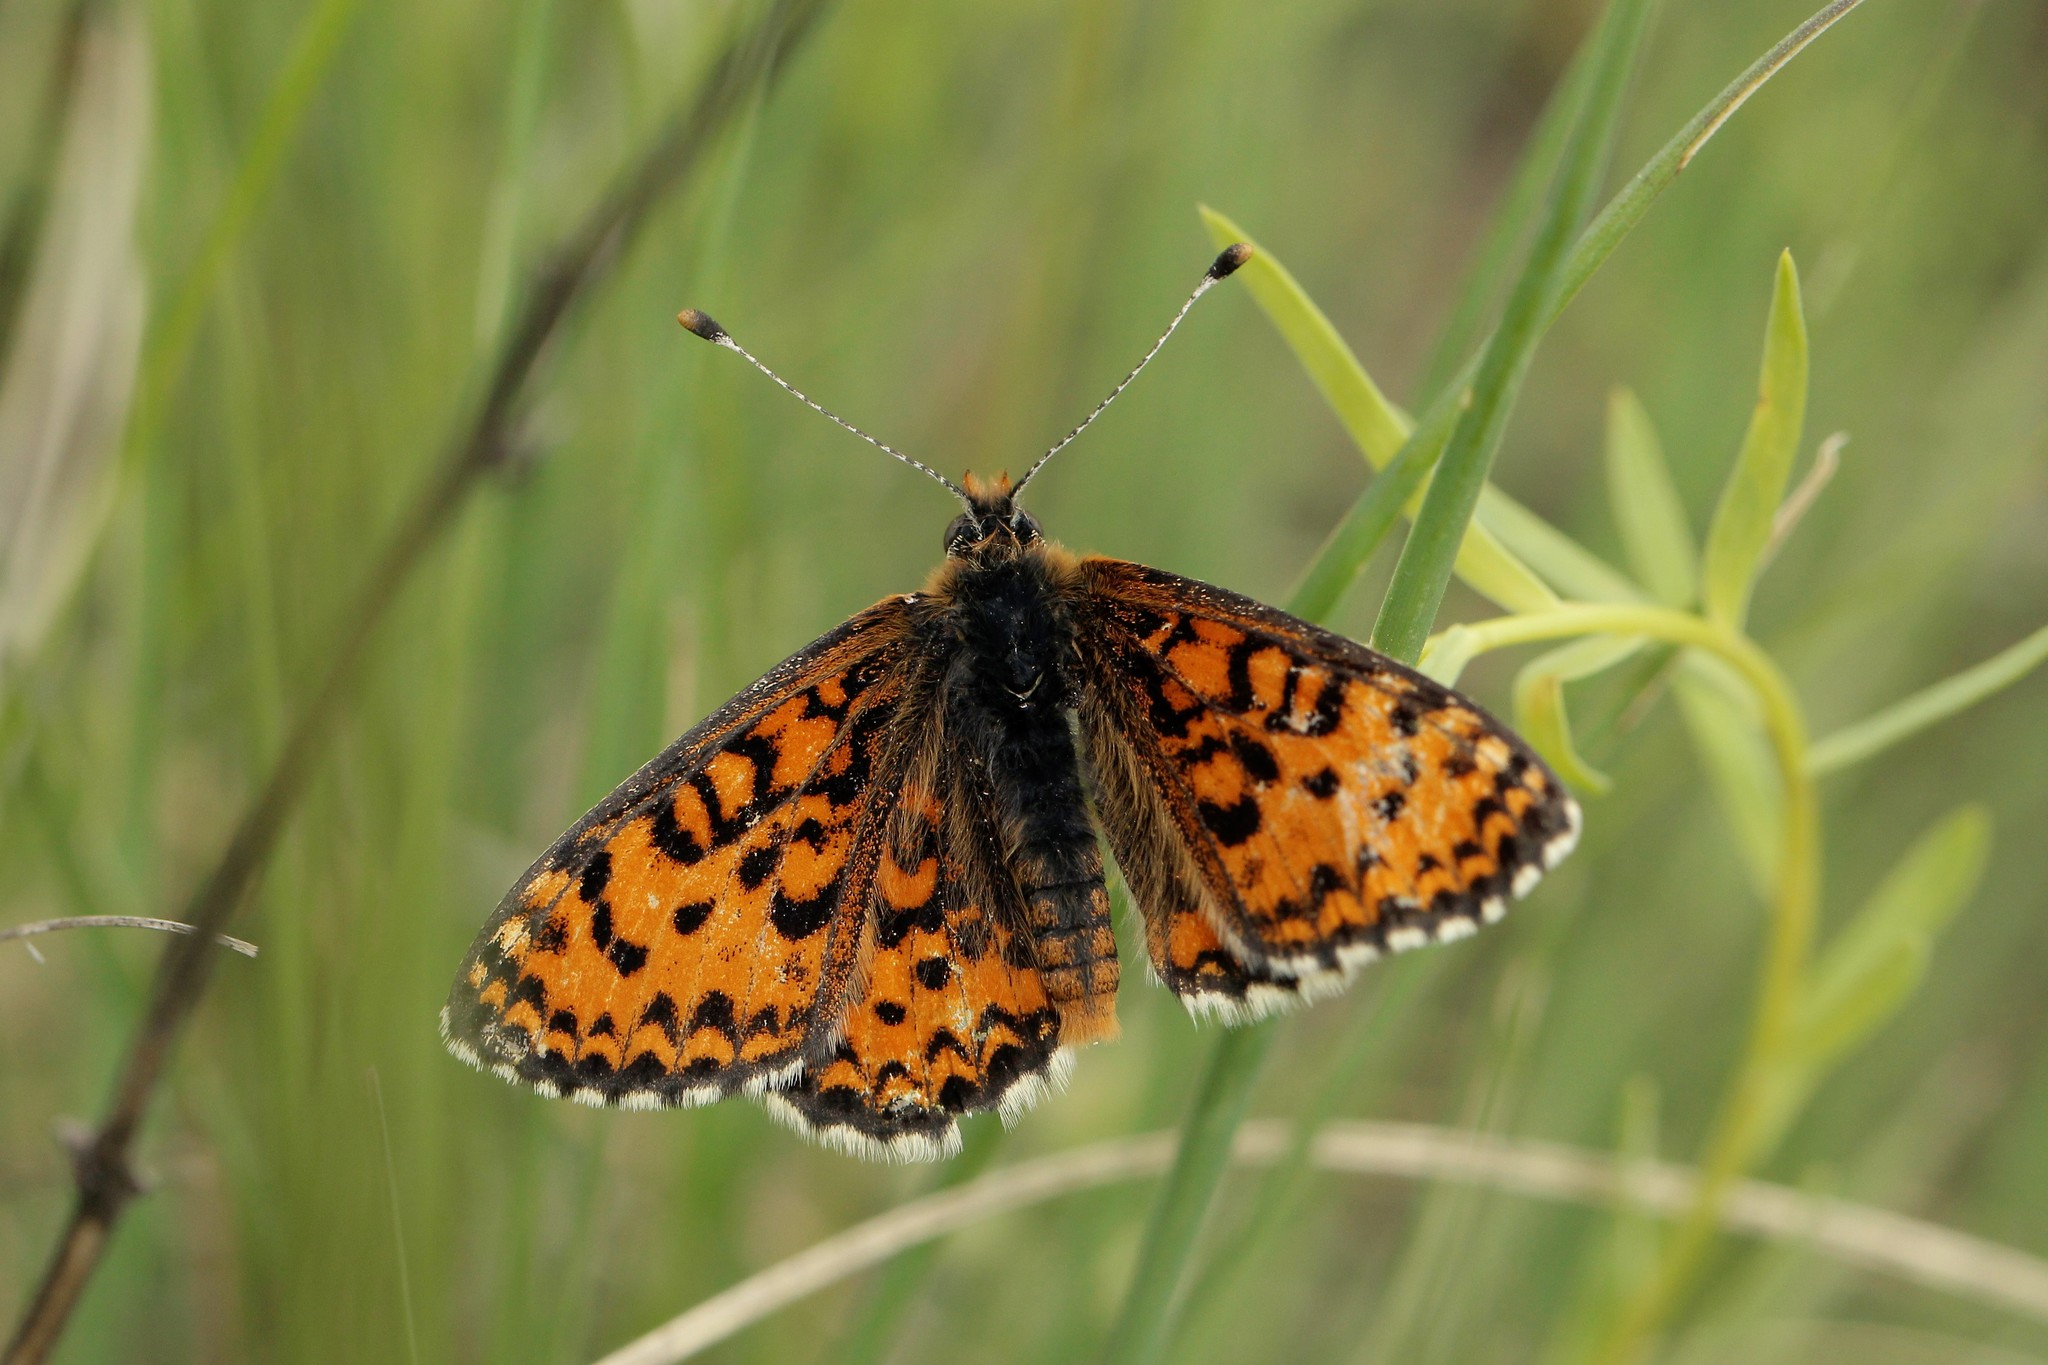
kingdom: Animalia
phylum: Arthropoda
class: Insecta
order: Lepidoptera
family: Nymphalidae
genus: Melitaea
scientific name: Melitaea trivia
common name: Lesser spotted fritillary
